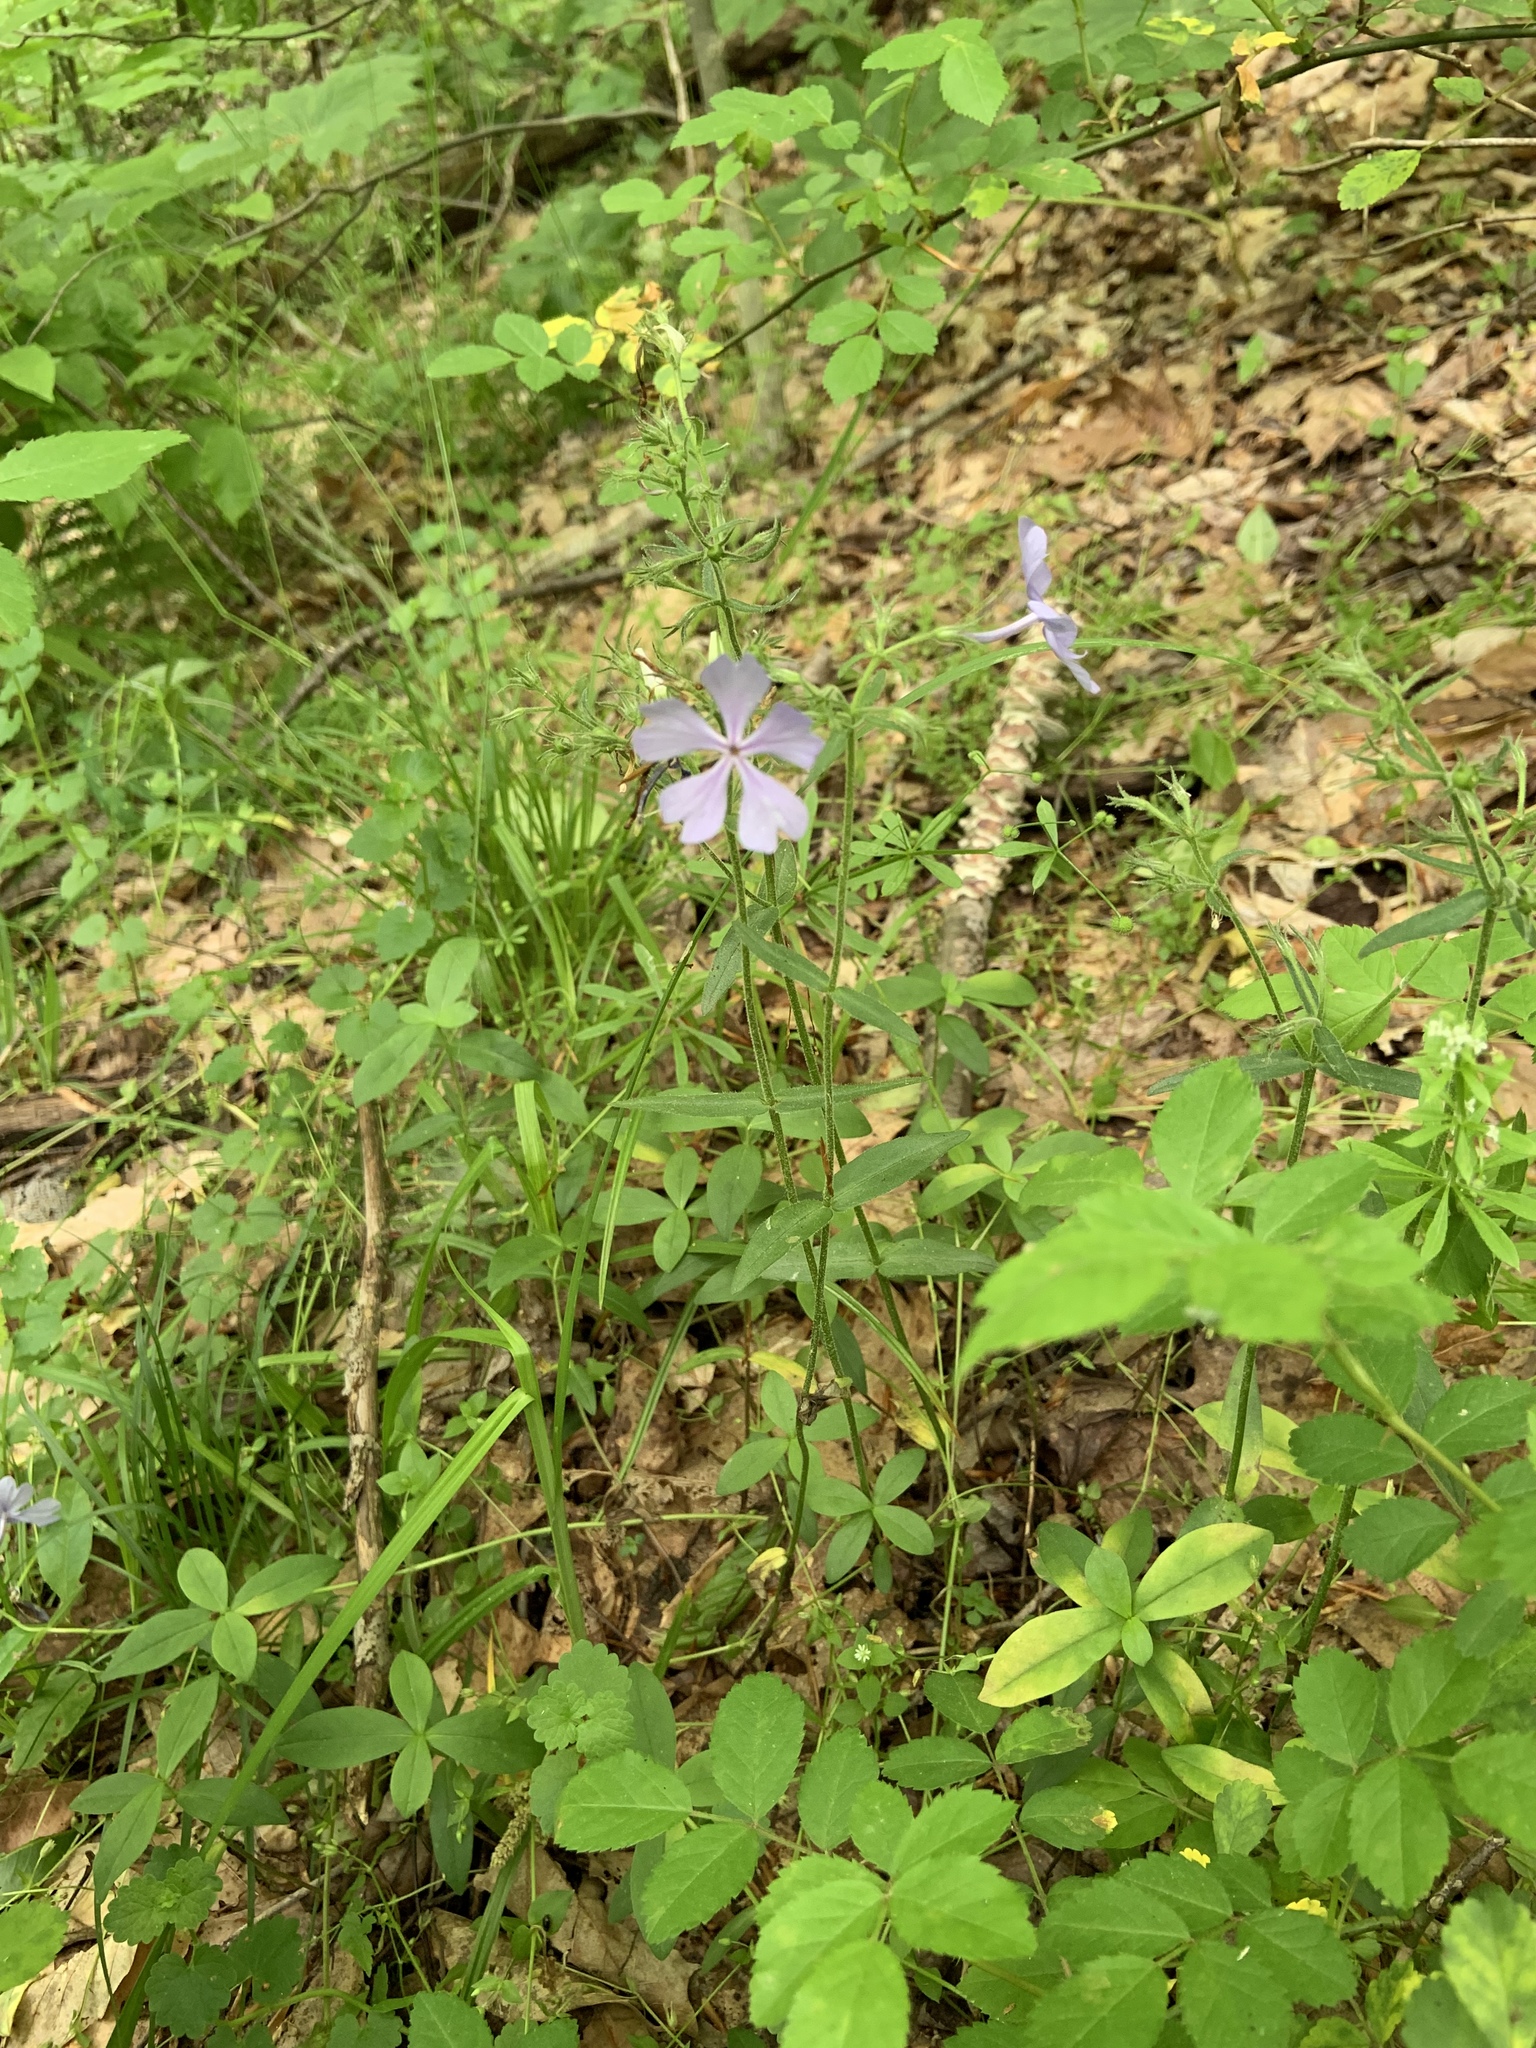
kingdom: Plantae
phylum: Tracheophyta
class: Magnoliopsida
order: Ericales
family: Polemoniaceae
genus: Phlox
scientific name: Phlox divaricata
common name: Blue phlox
